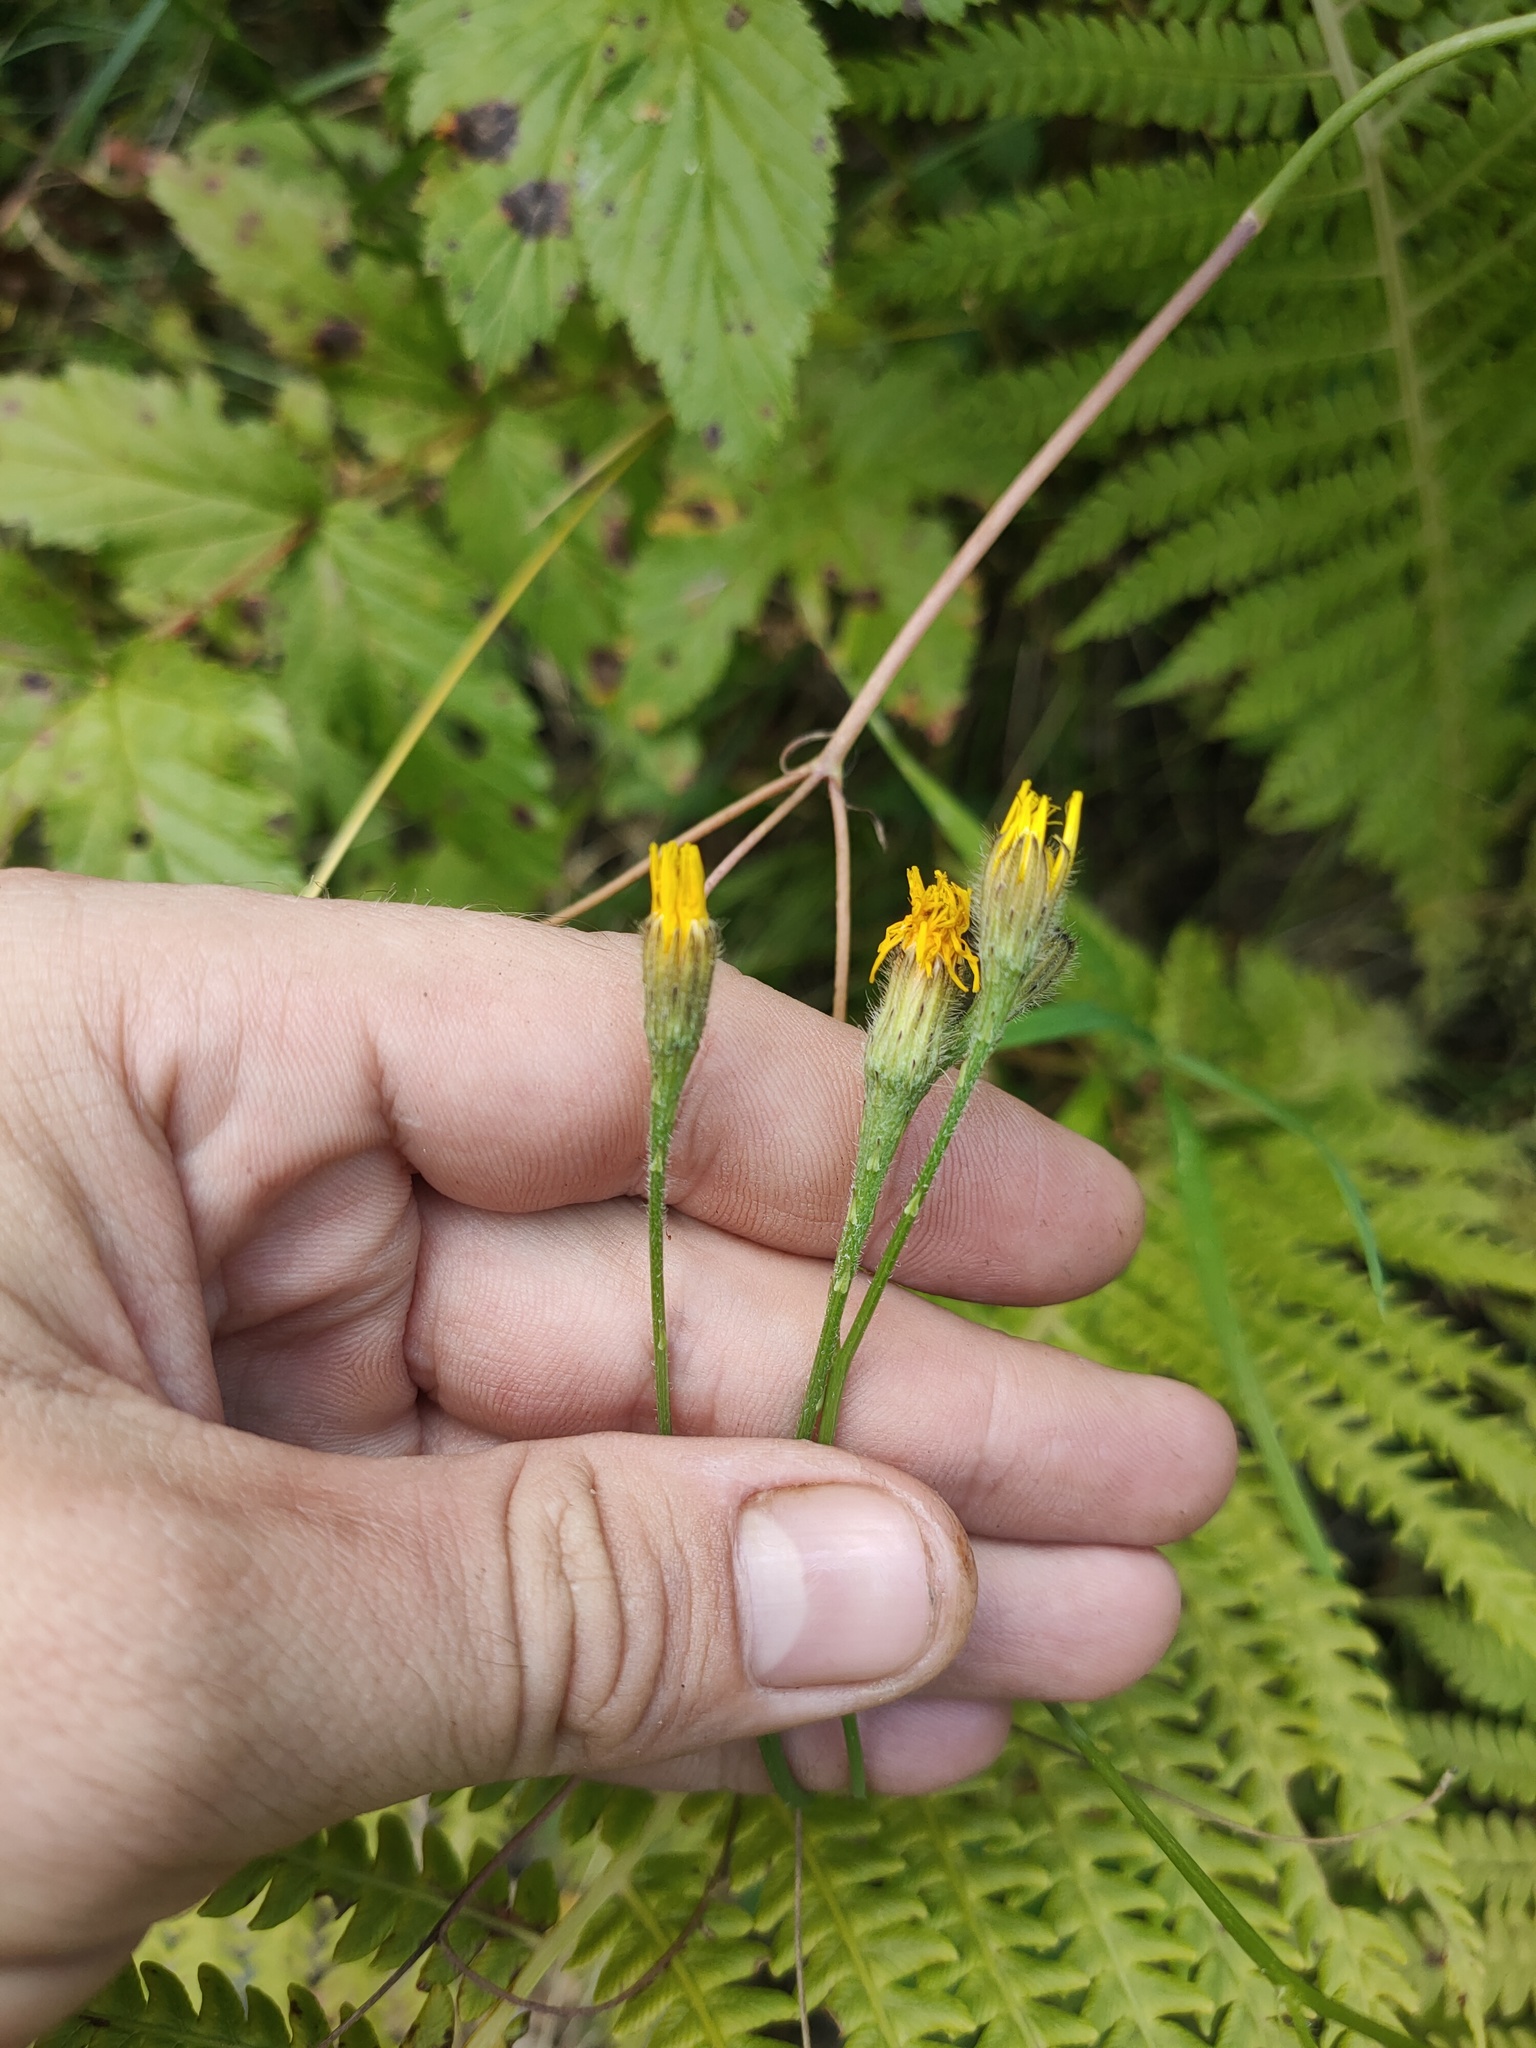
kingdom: Plantae
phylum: Tracheophyta
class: Magnoliopsida
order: Asterales
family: Asteraceae
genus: Scorzoneroides
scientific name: Scorzoneroides autumnalis
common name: Autumn hawkbit
